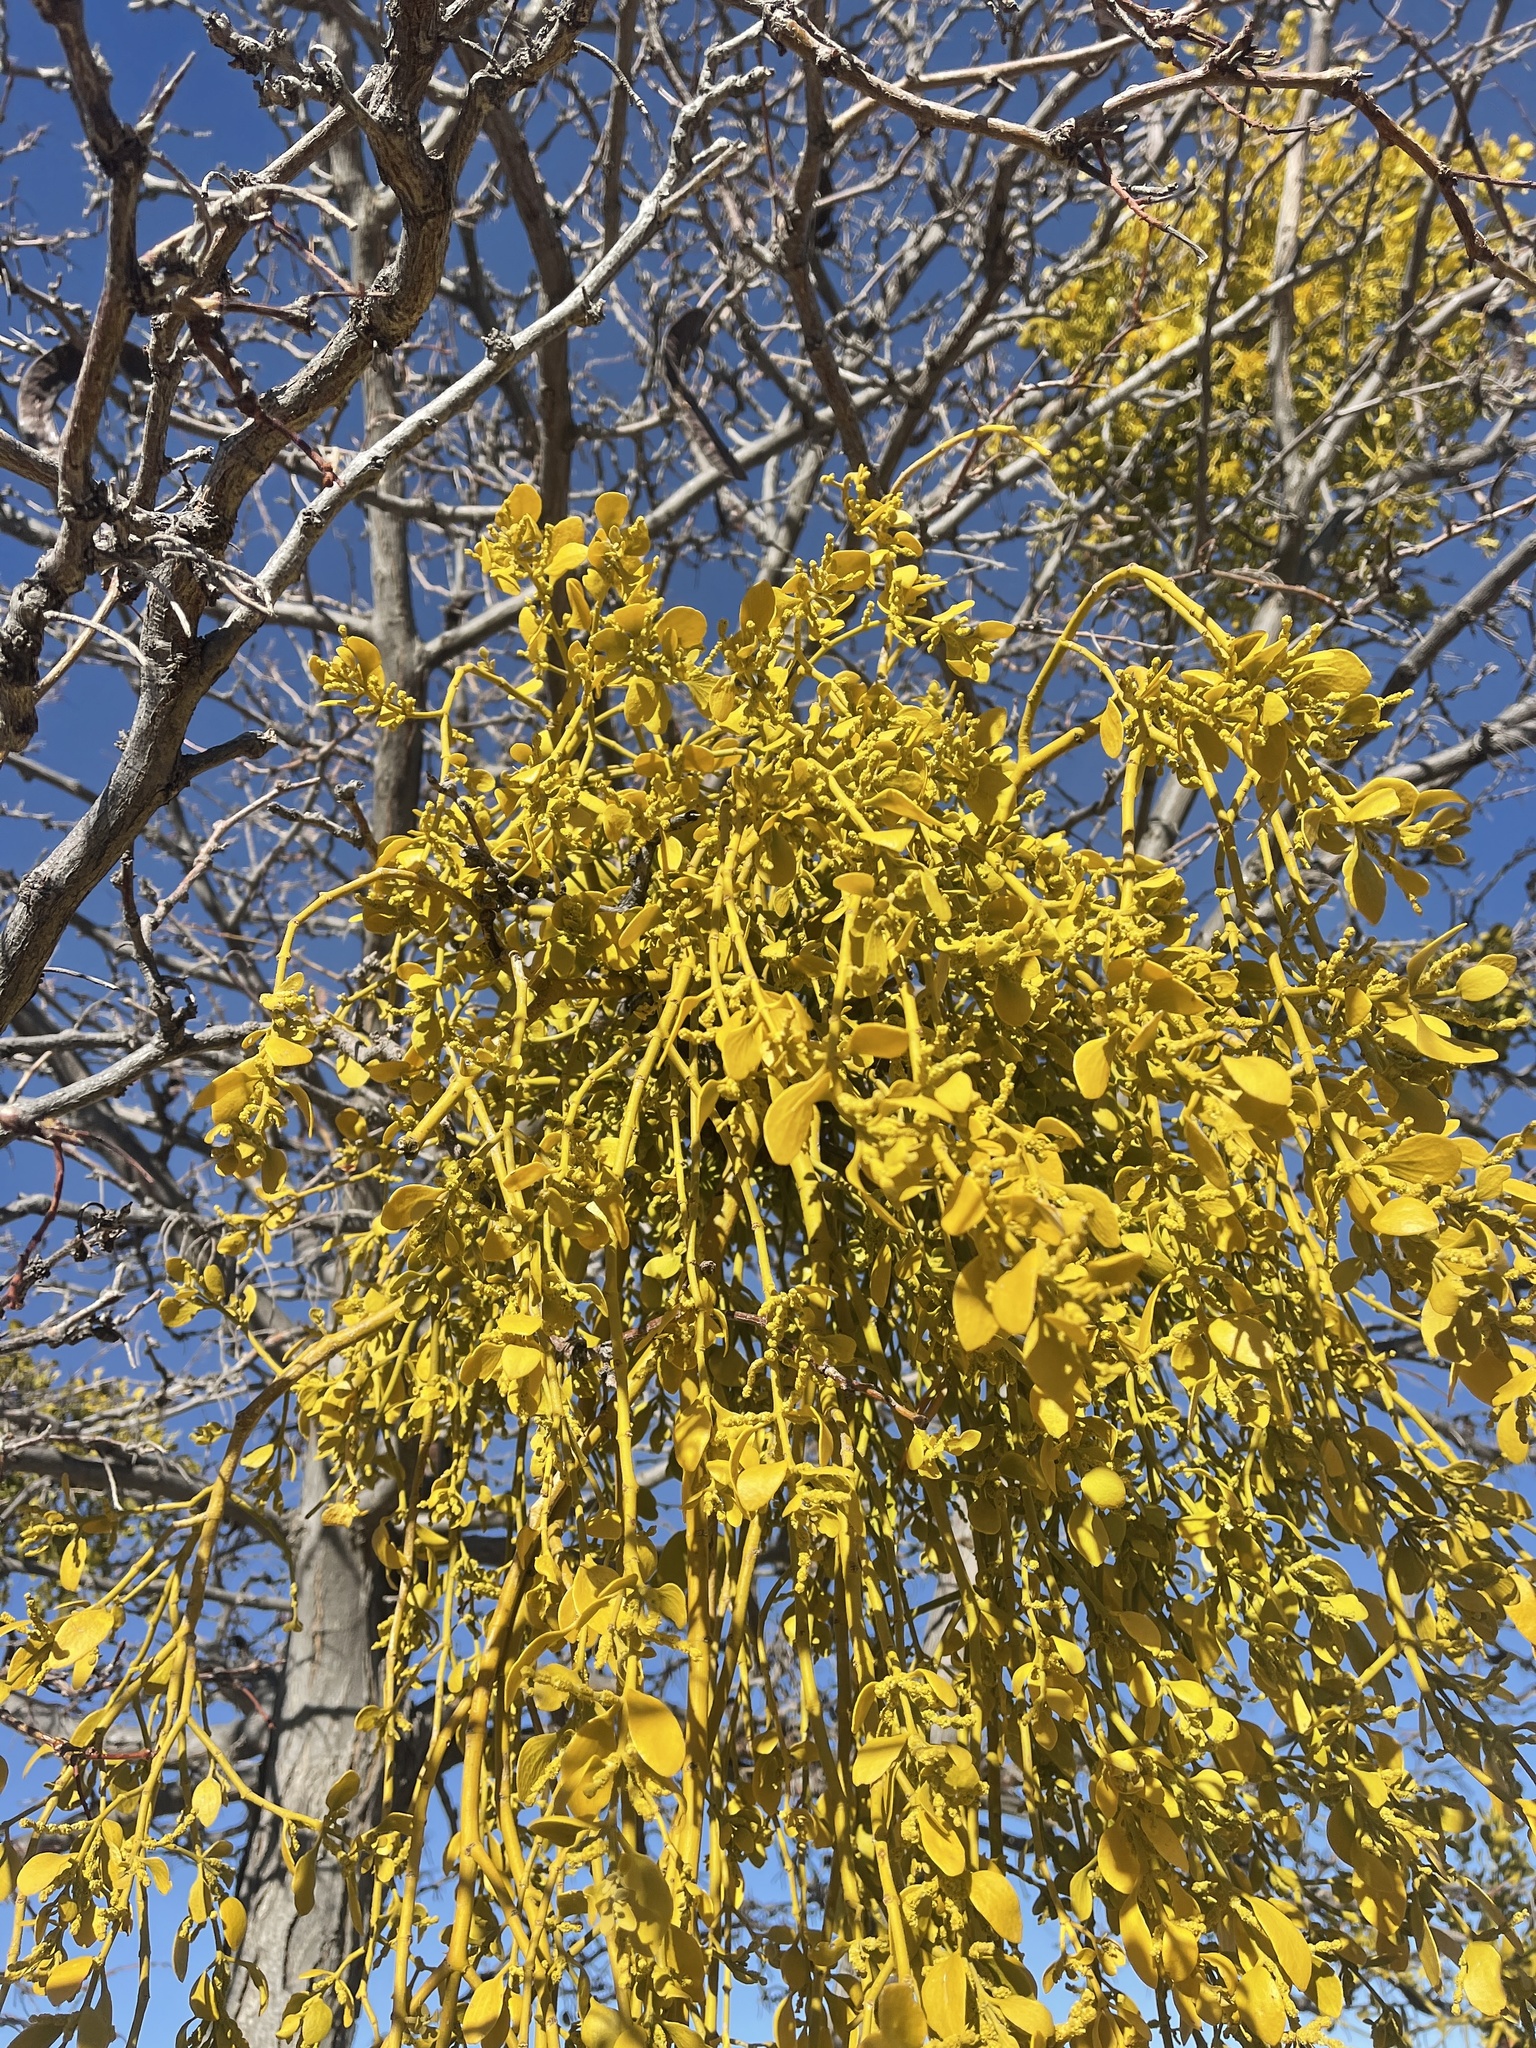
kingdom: Plantae
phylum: Tracheophyta
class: Magnoliopsida
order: Santalales
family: Viscaceae
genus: Phoradendron
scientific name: Phoradendron
